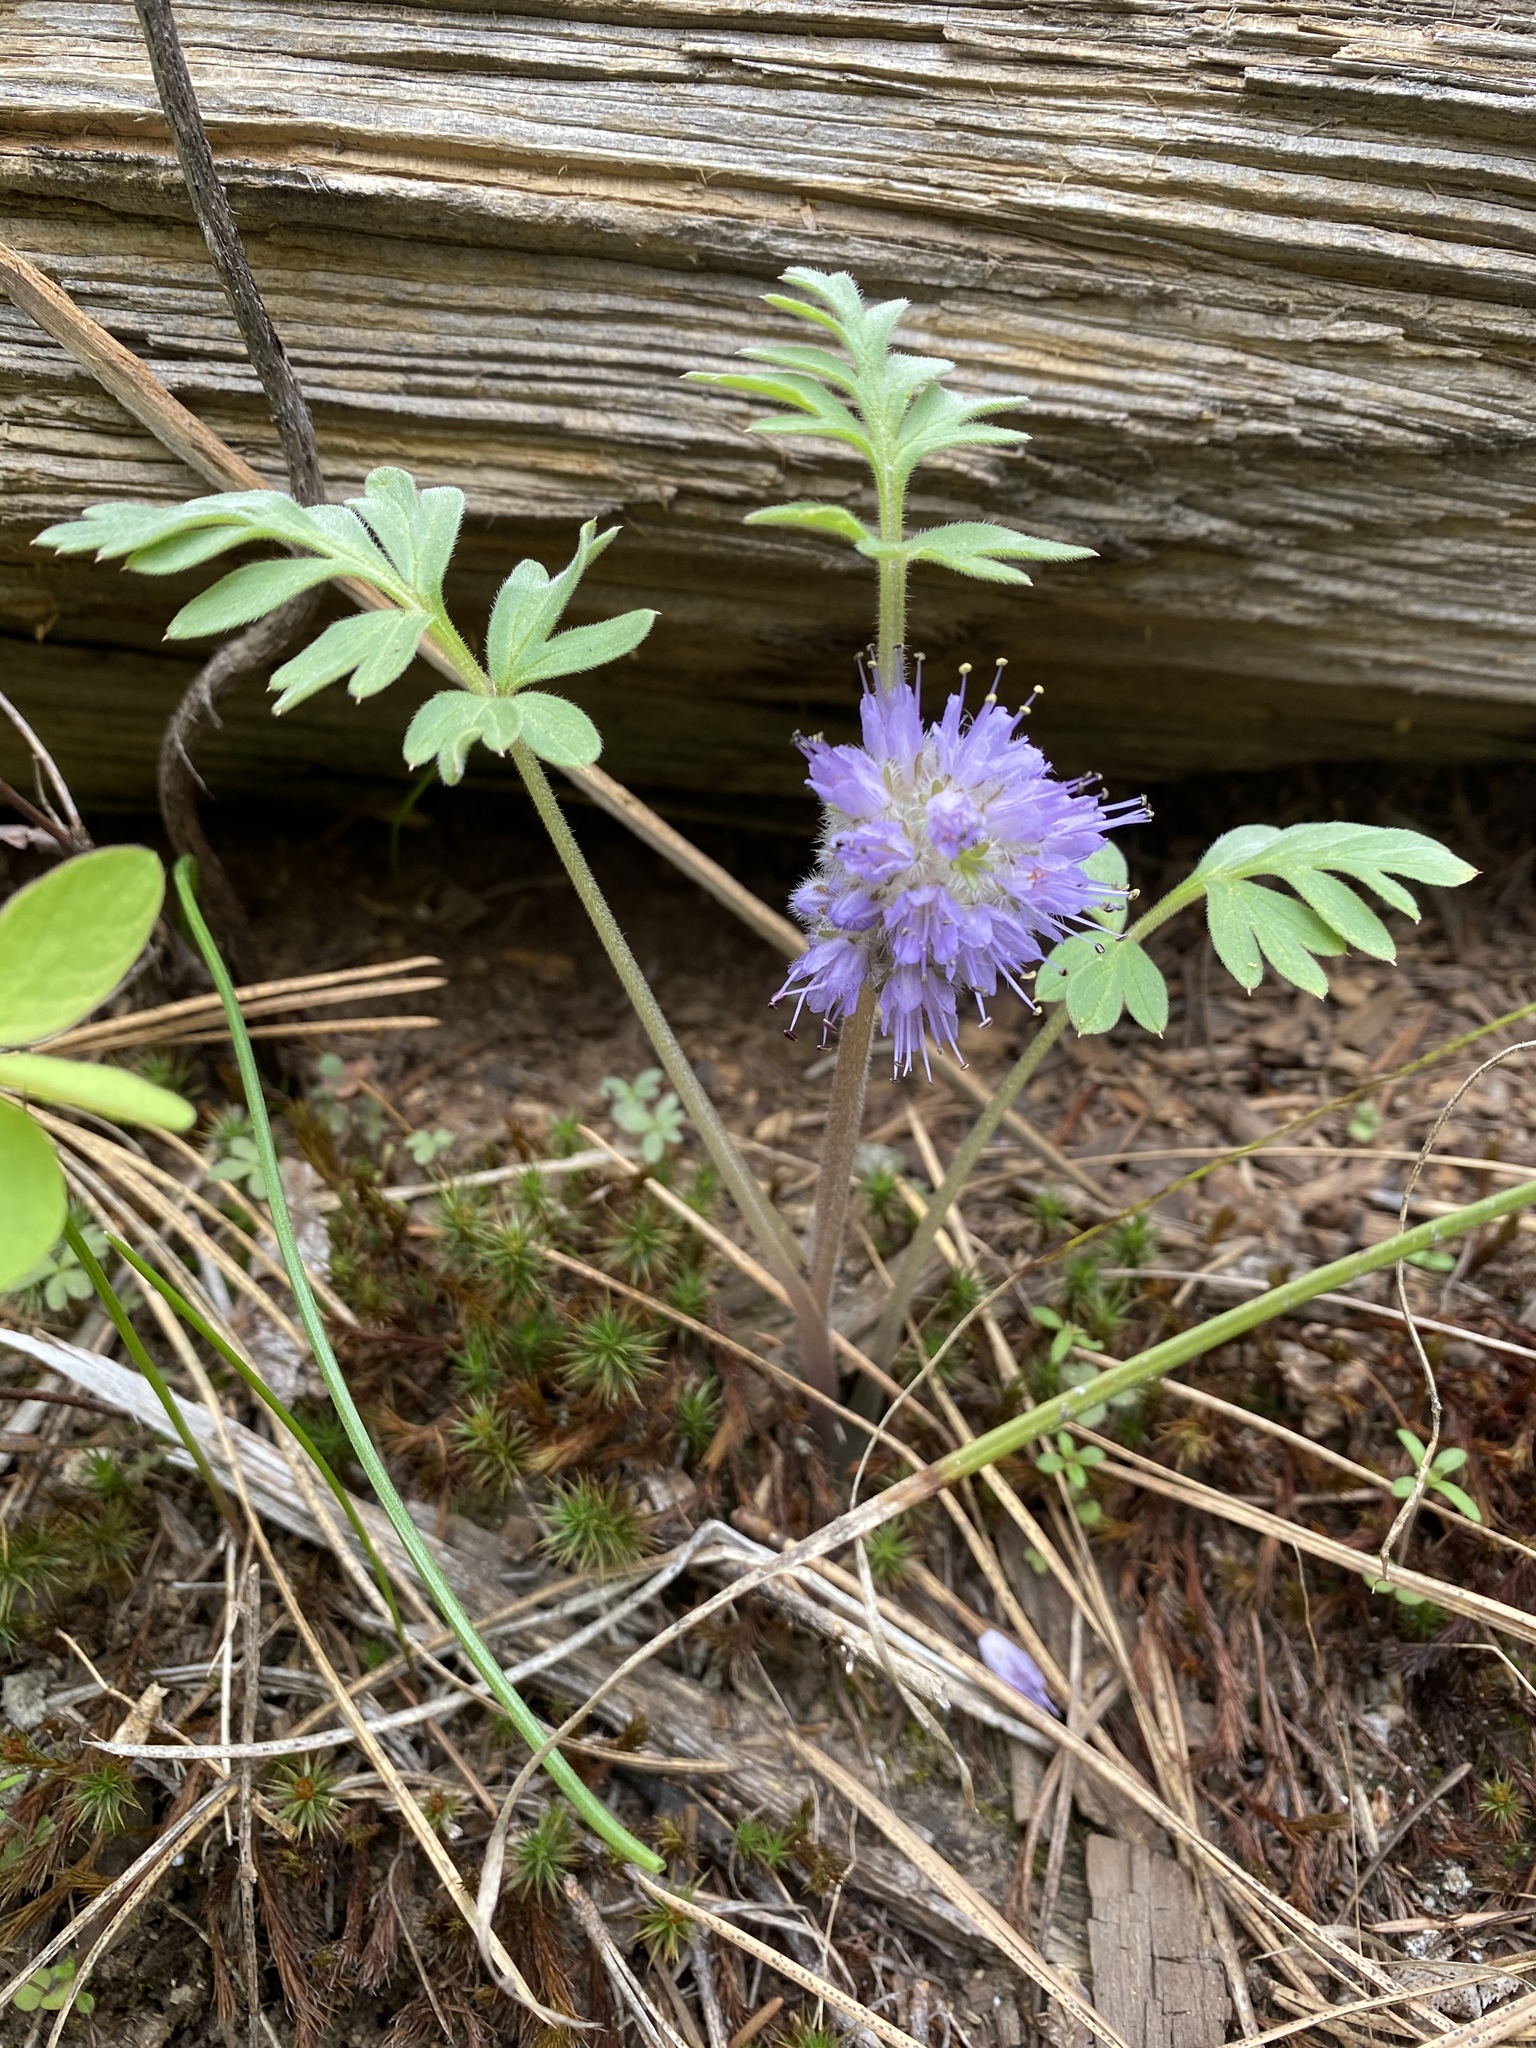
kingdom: Plantae
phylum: Tracheophyta
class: Magnoliopsida
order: Boraginales
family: Hydrophyllaceae
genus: Hydrophyllum
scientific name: Hydrophyllum capitatum
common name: Woollen-breeches
